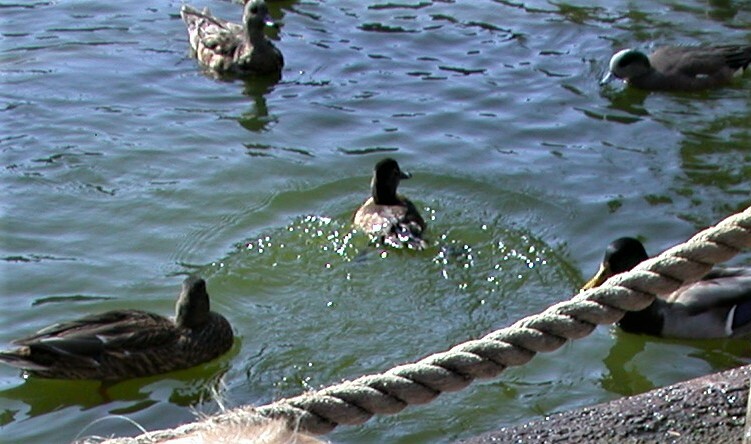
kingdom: Animalia
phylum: Chordata
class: Aves
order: Anseriformes
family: Anatidae
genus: Aythya
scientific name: Aythya collaris
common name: Ring-necked duck
